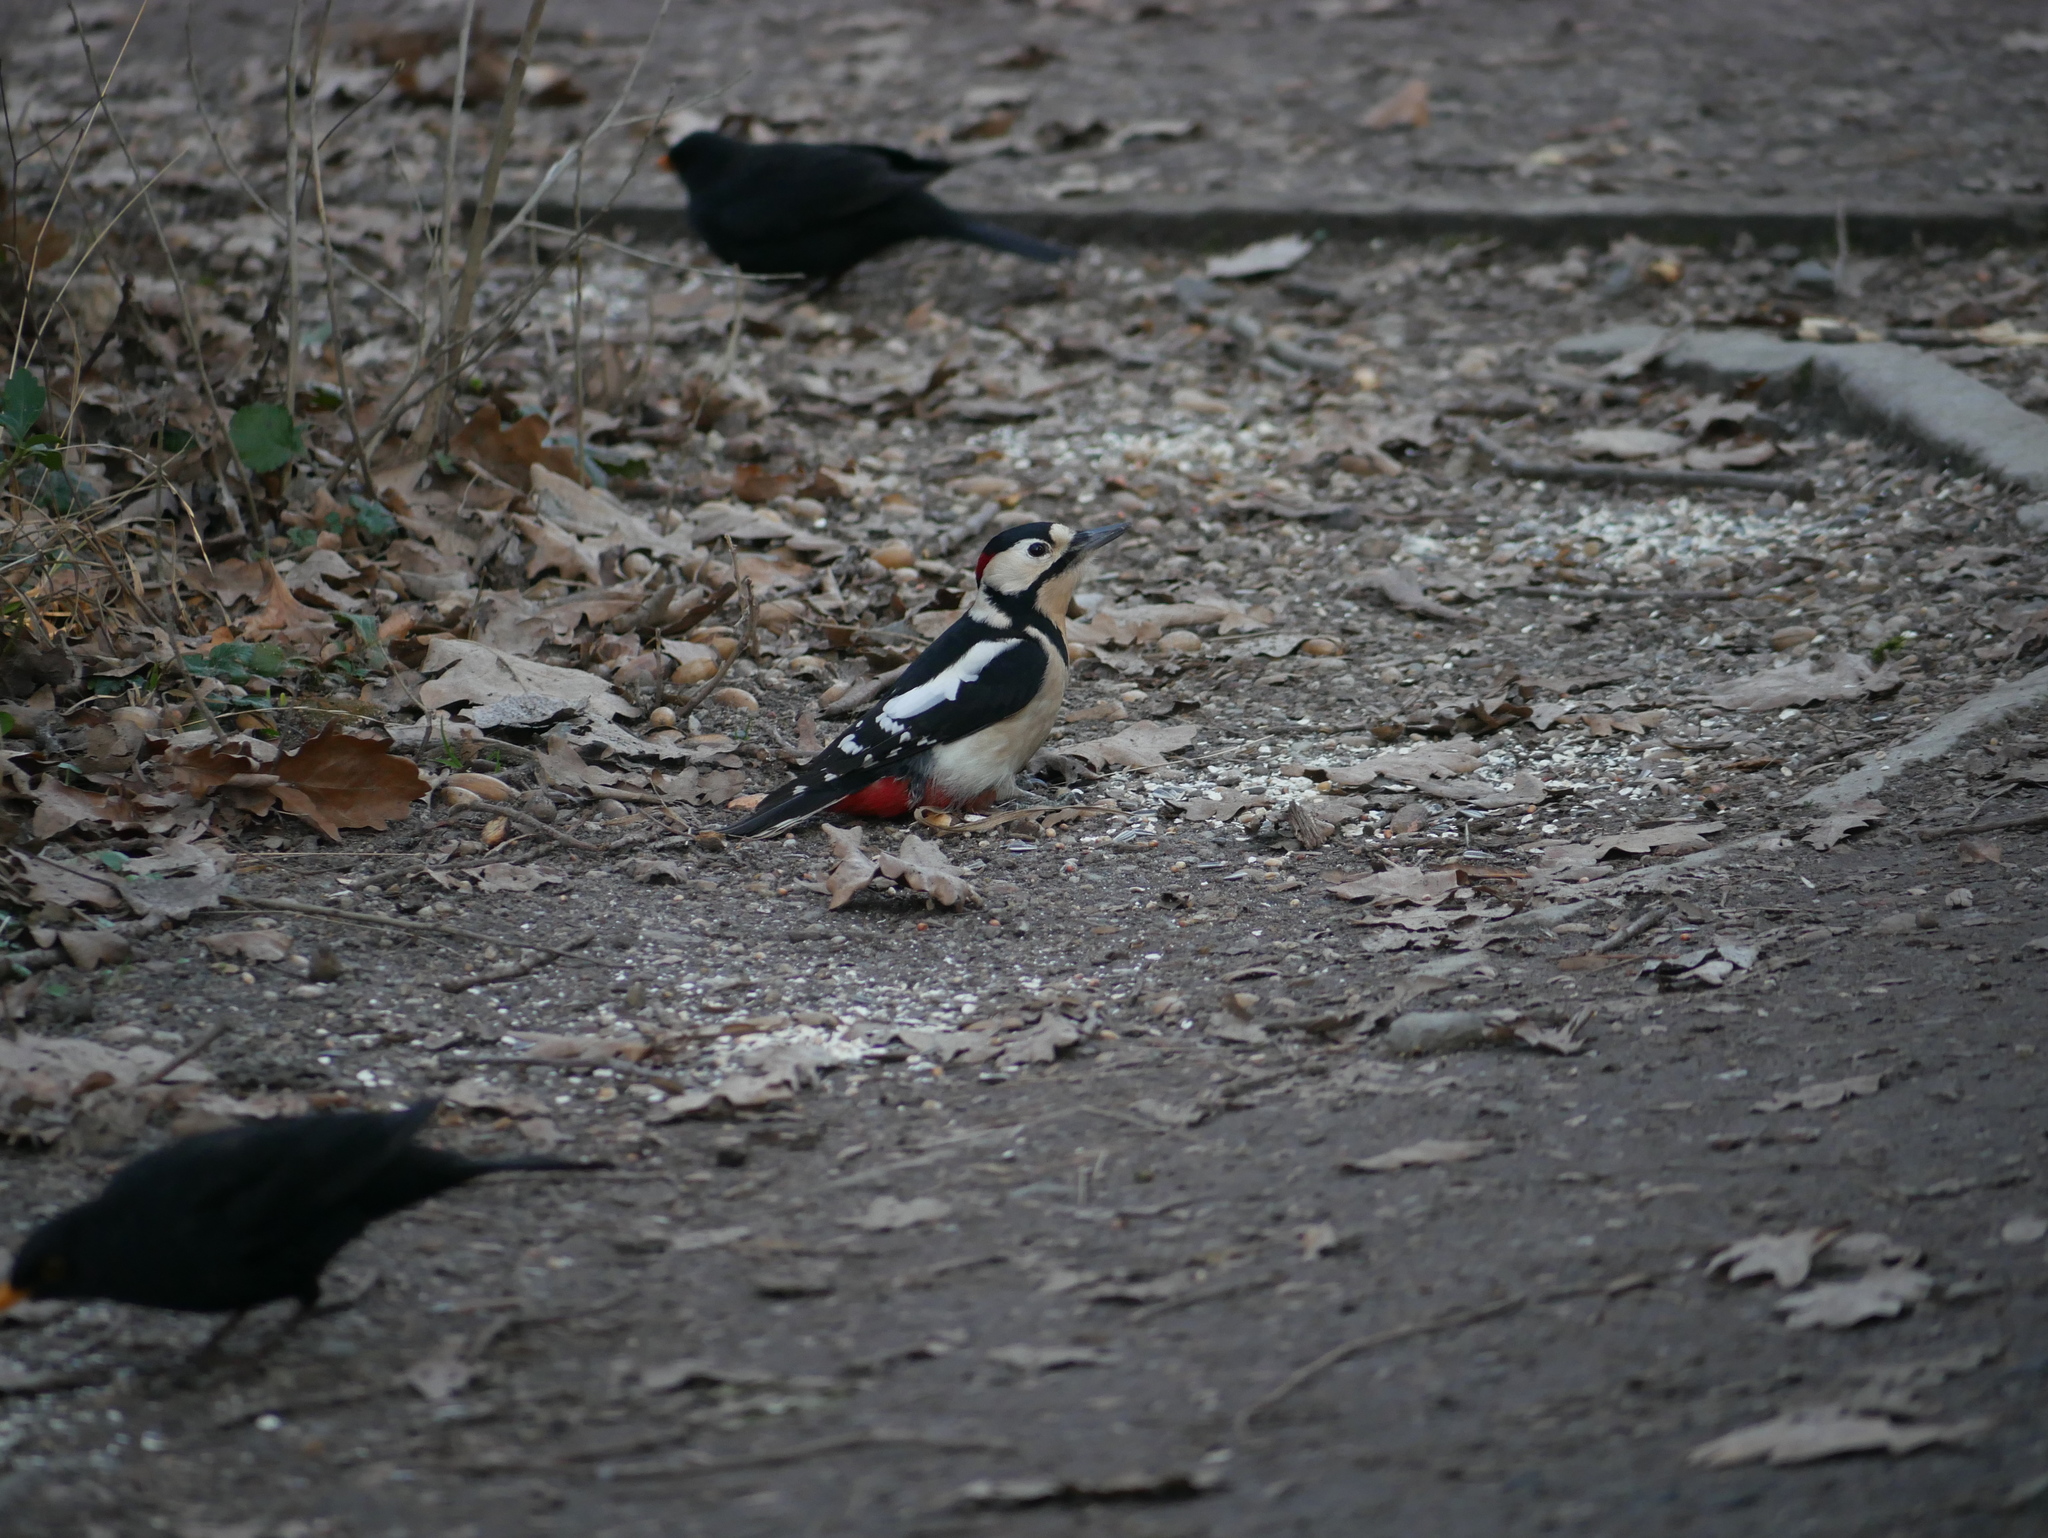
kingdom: Animalia
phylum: Chordata
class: Aves
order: Piciformes
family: Picidae
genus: Dendrocopos
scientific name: Dendrocopos major
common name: Great spotted woodpecker
